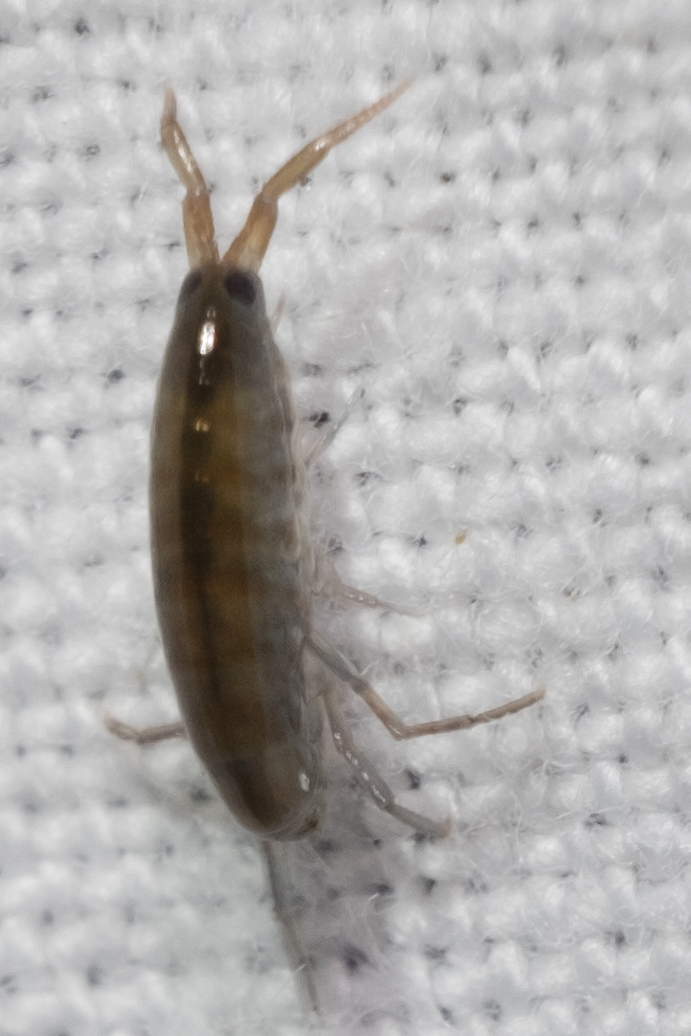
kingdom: Animalia
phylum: Arthropoda
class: Malacostraca
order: Amphipoda
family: Talitridae
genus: Platorchestia
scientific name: Platorchestia platensis
